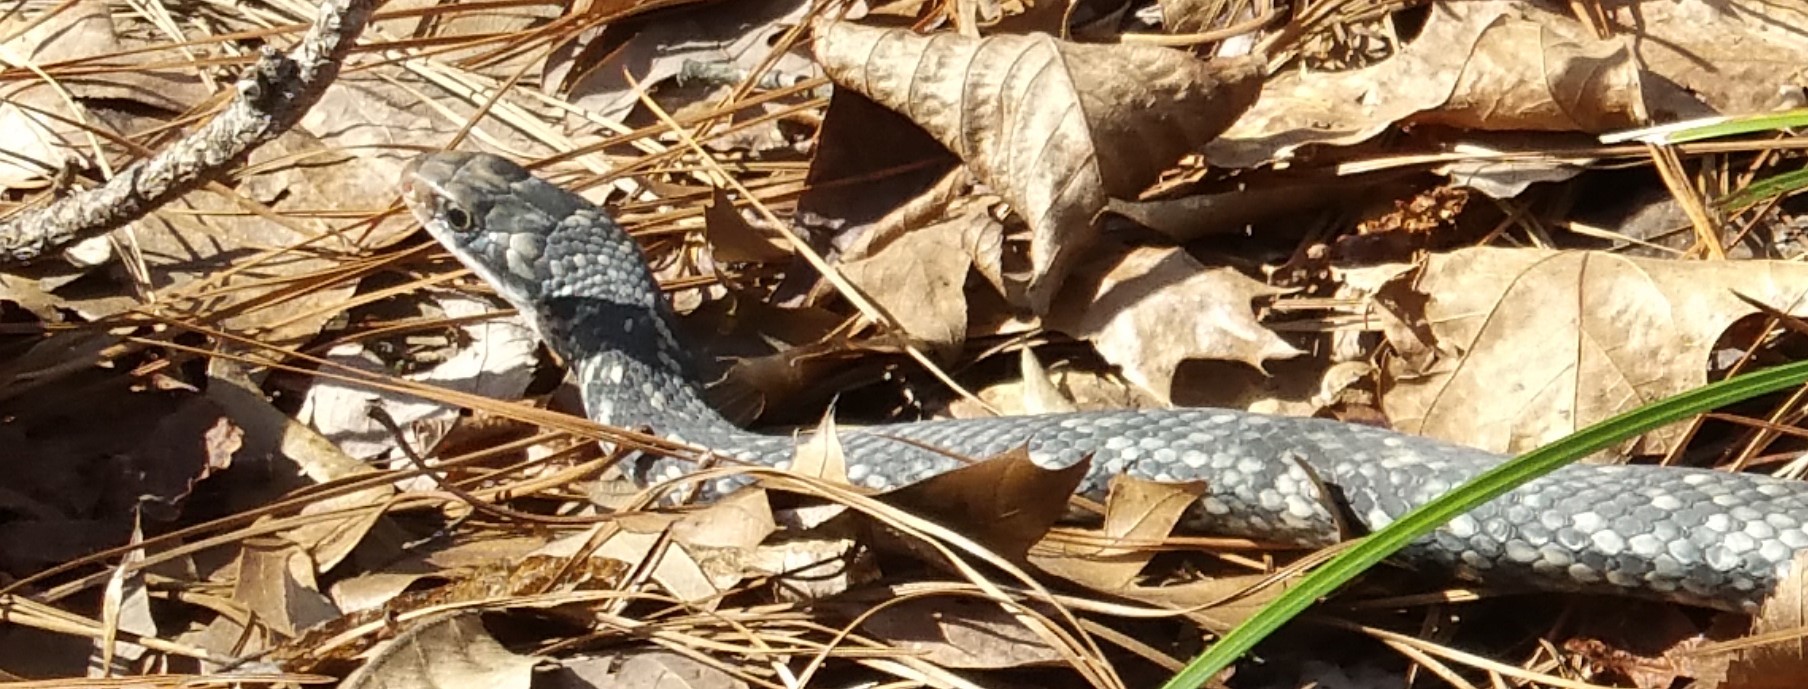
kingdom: Animalia
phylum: Chordata
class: Squamata
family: Colubridae
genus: Coluber
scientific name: Coluber constrictor
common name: Eastern racer
